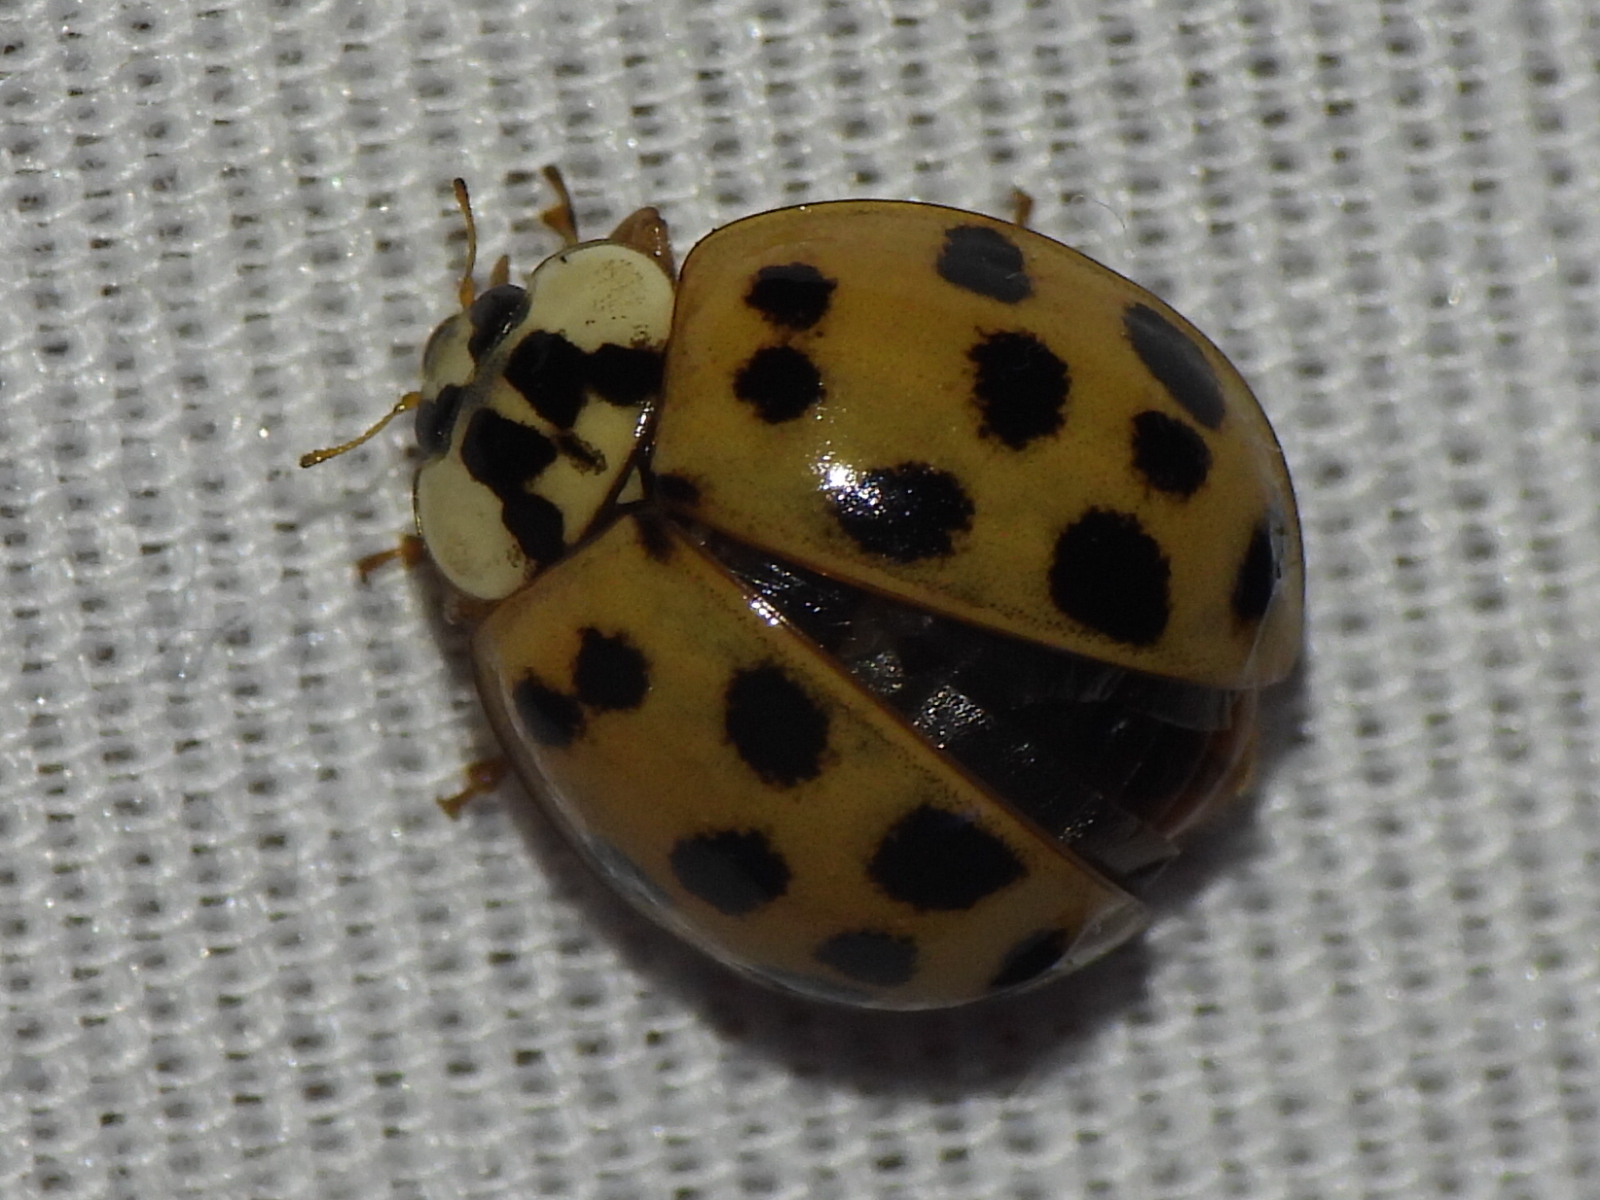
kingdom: Animalia
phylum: Arthropoda
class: Insecta
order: Coleoptera
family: Coccinellidae
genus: Harmonia
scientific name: Harmonia axyridis
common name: Harlequin ladybird
